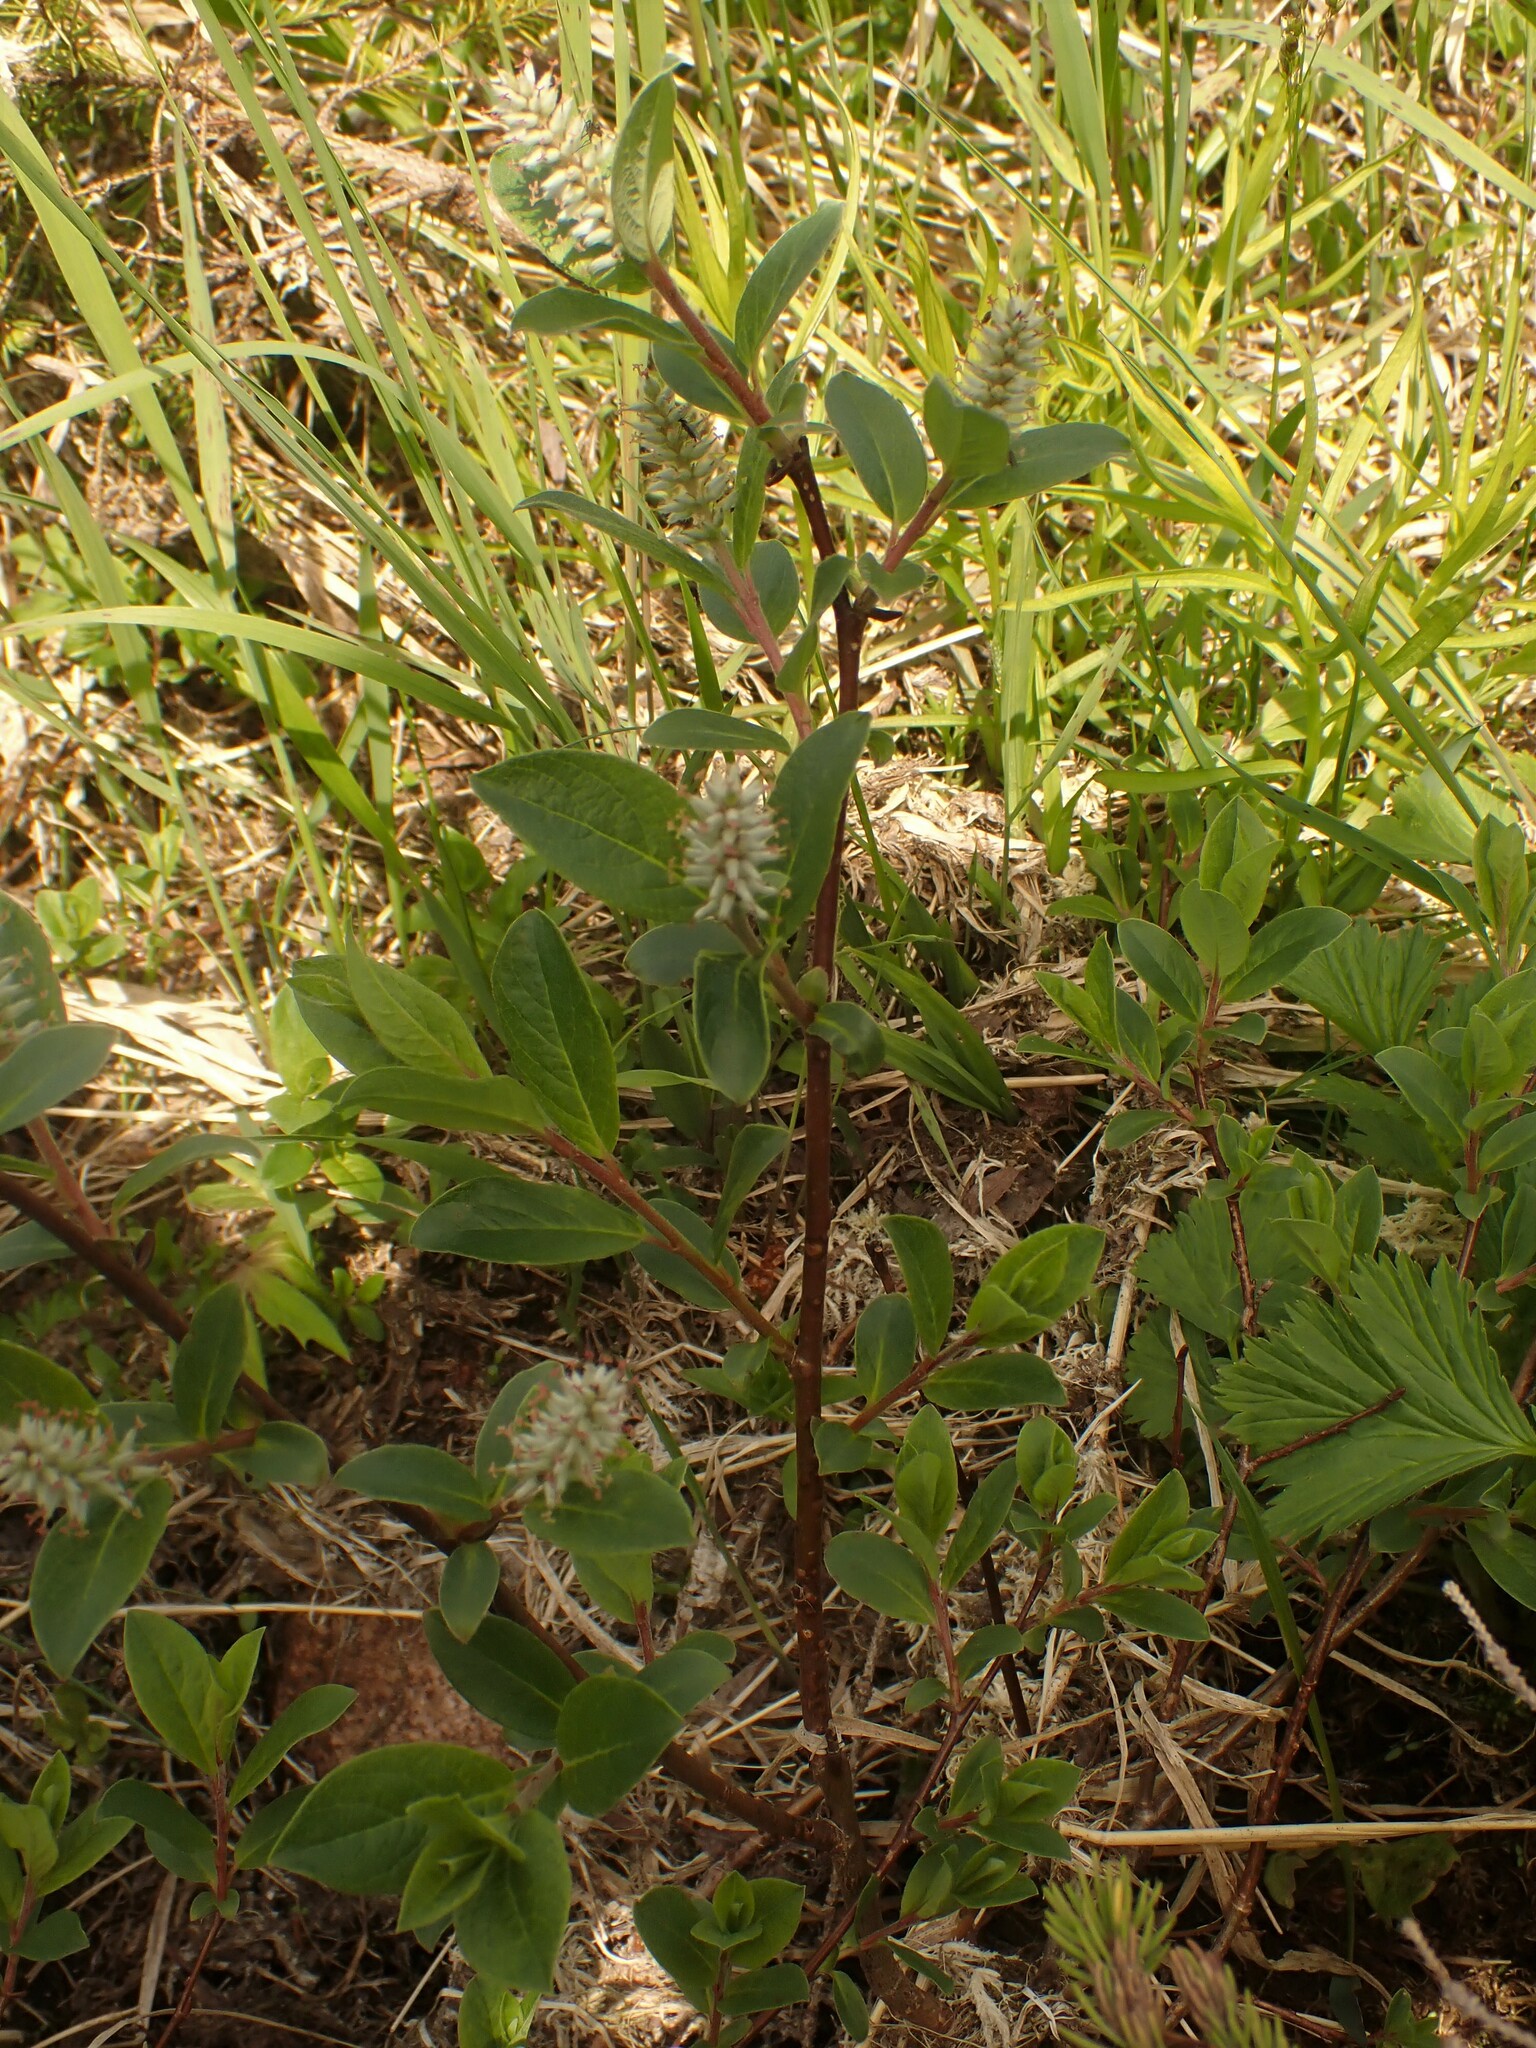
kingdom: Plantae
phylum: Tracheophyta
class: Magnoliopsida
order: Malpighiales
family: Salicaceae
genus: Salix
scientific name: Salix glauca
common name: Glaucous willow
